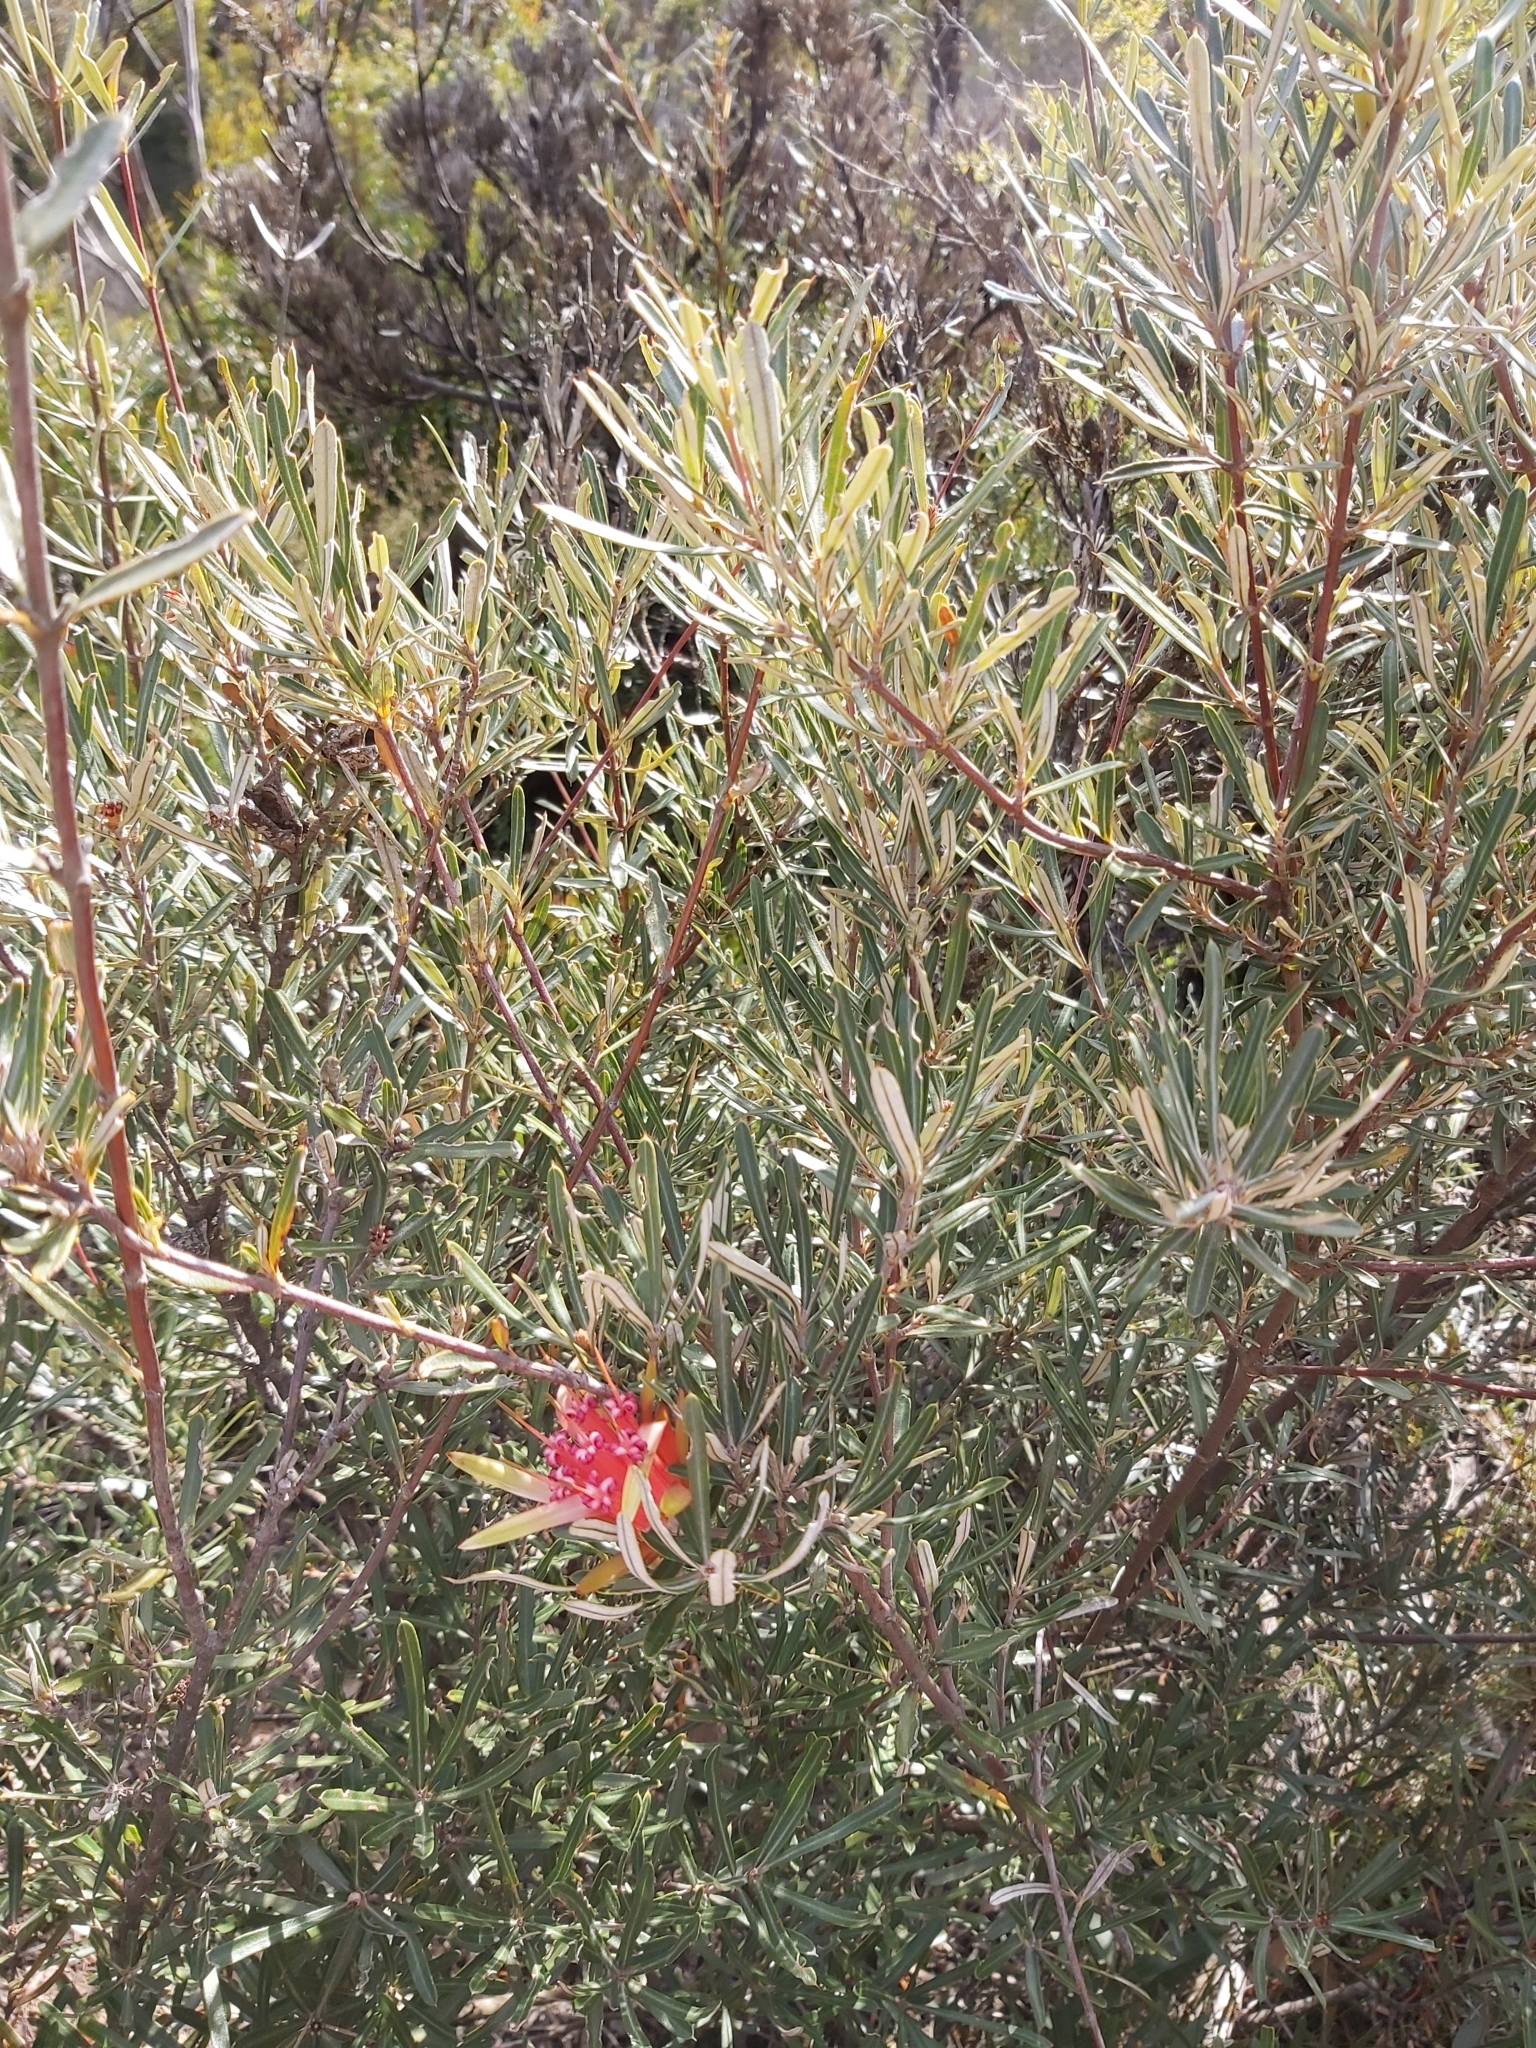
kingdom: Plantae
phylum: Tracheophyta
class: Magnoliopsida
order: Proteales
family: Proteaceae
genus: Lambertia
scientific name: Lambertia formosa
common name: Mountain-devil
